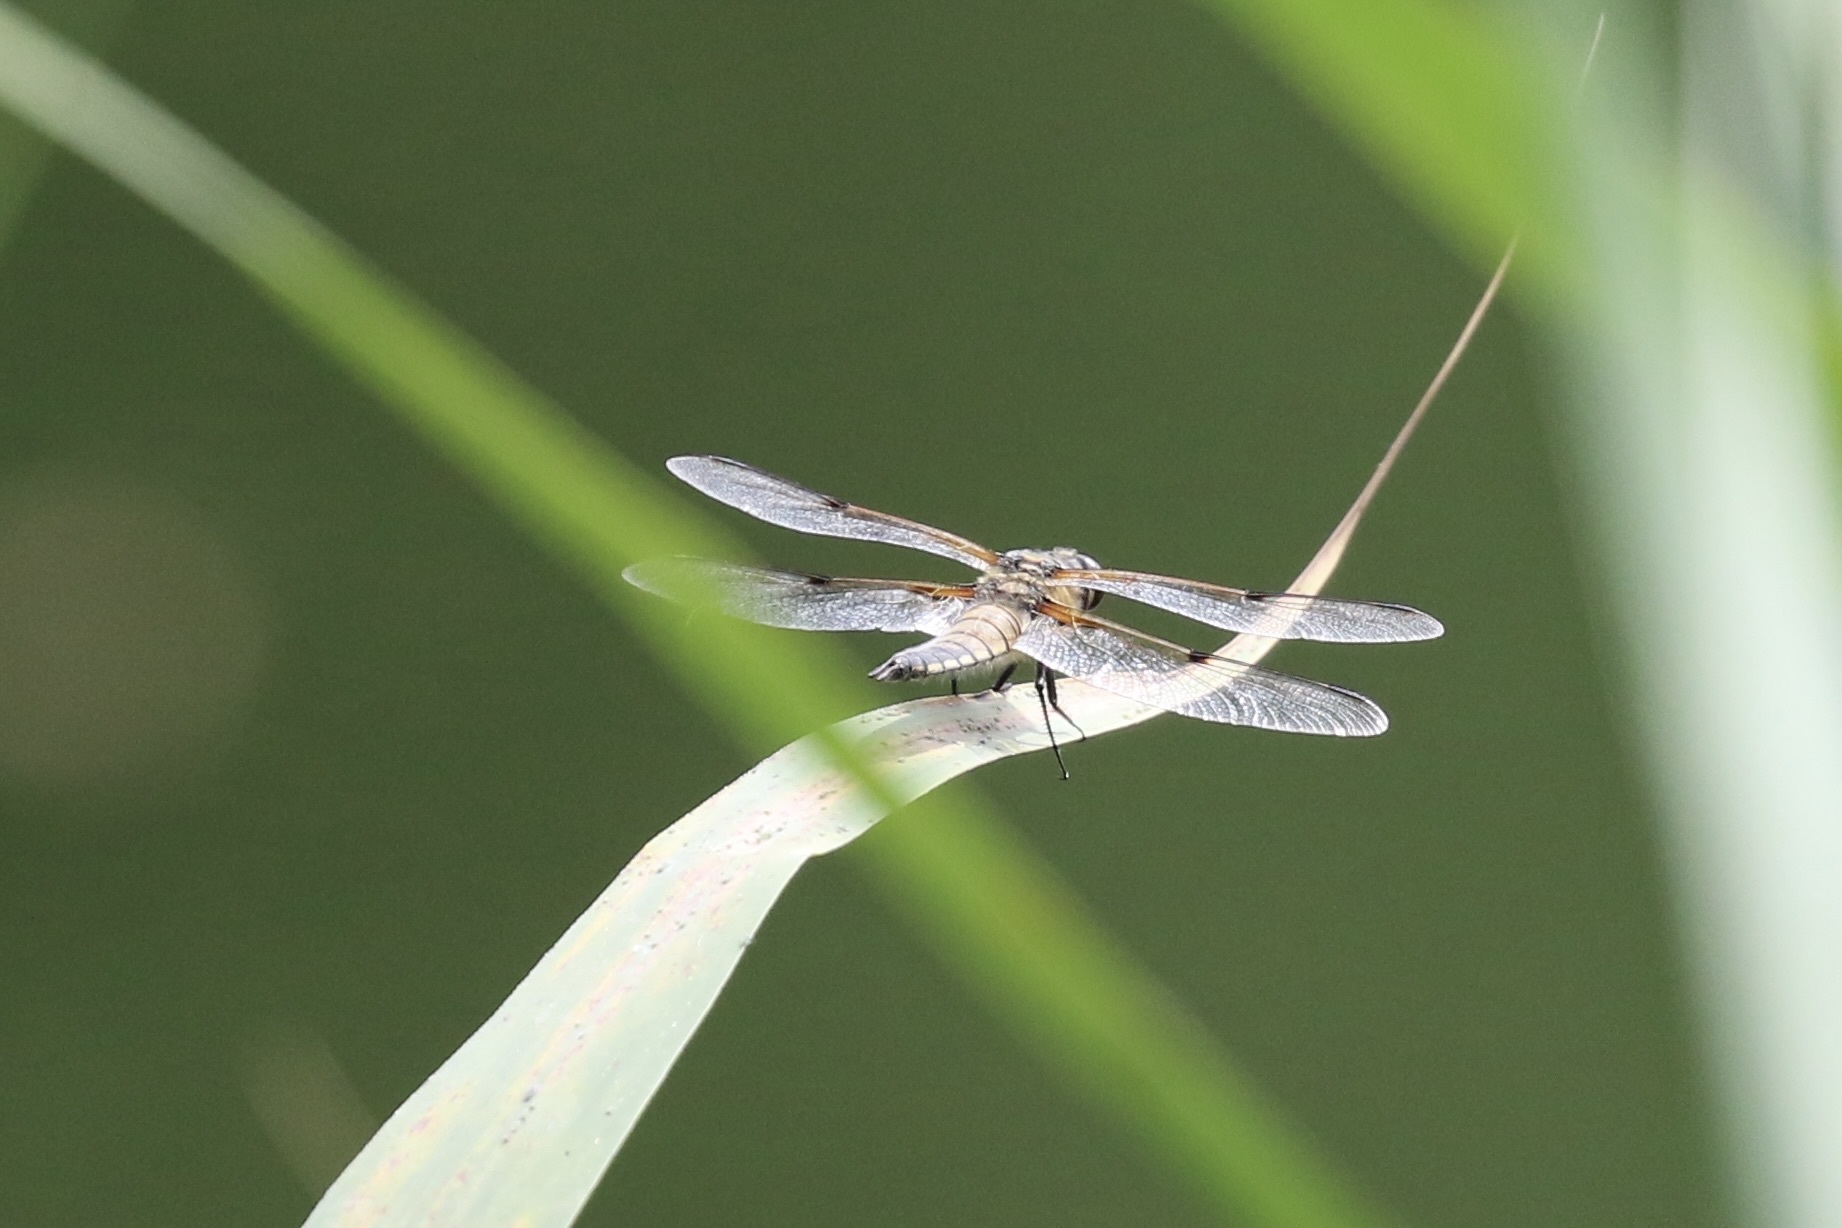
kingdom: Animalia
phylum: Arthropoda
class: Insecta
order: Odonata
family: Libellulidae
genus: Libellula
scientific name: Libellula quadrimaculata
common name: Four-spotted chaser
